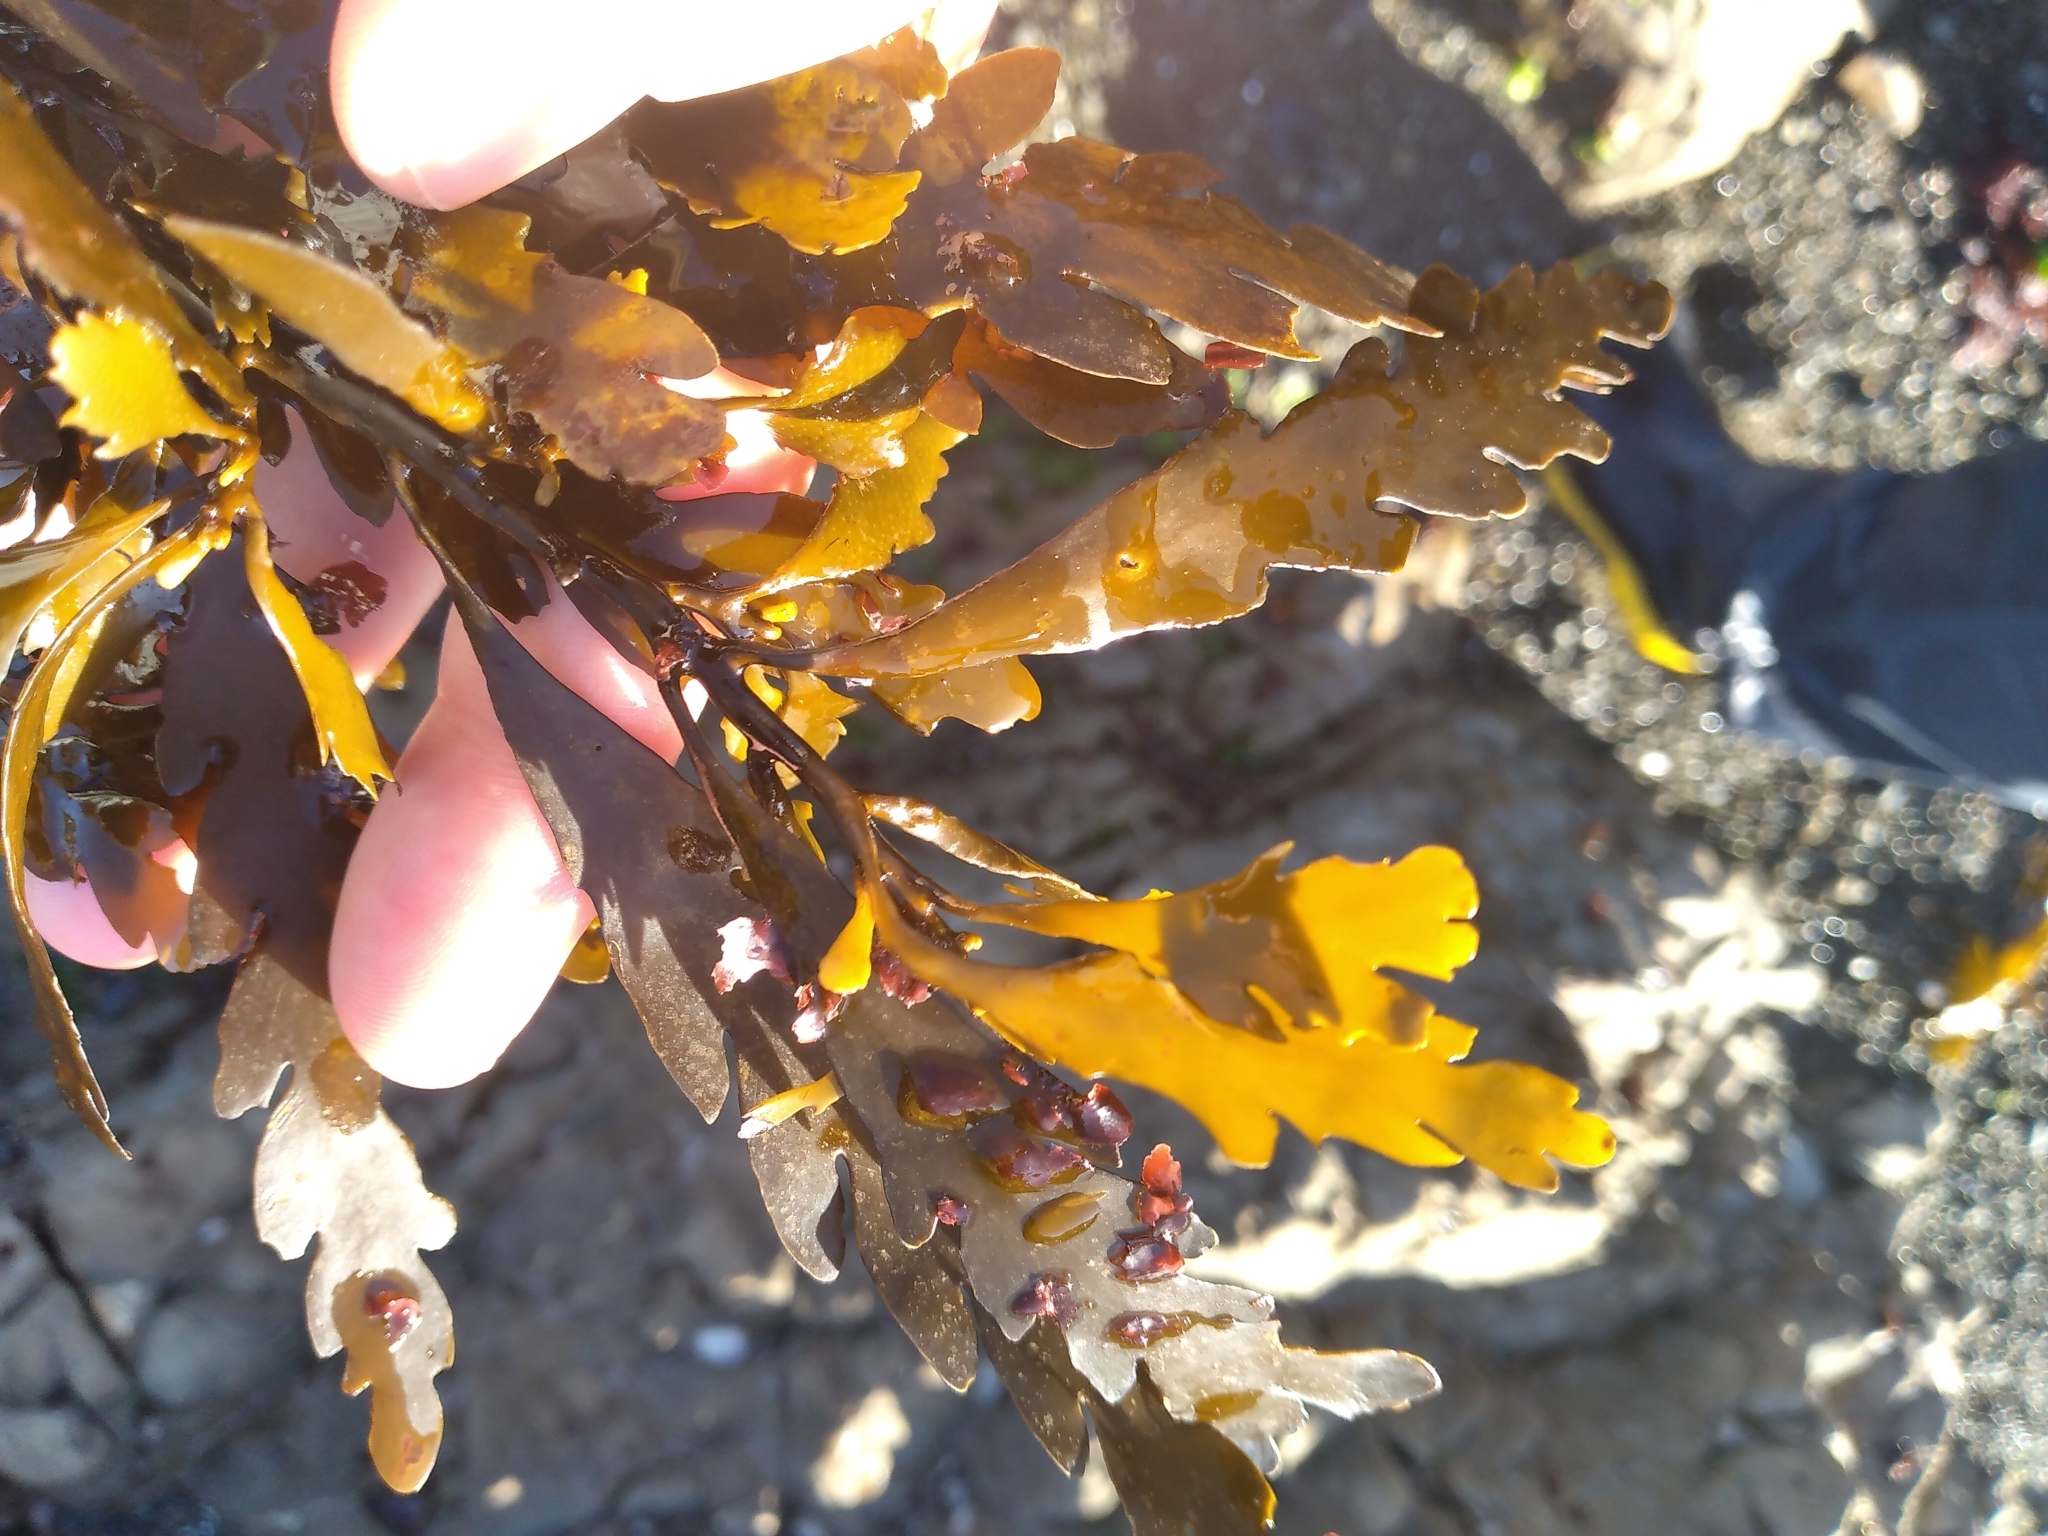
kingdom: Chromista
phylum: Ochrophyta
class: Phaeophyceae
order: Fucales
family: Sargassaceae
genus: Landsburgia
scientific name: Landsburgia quercifolia
